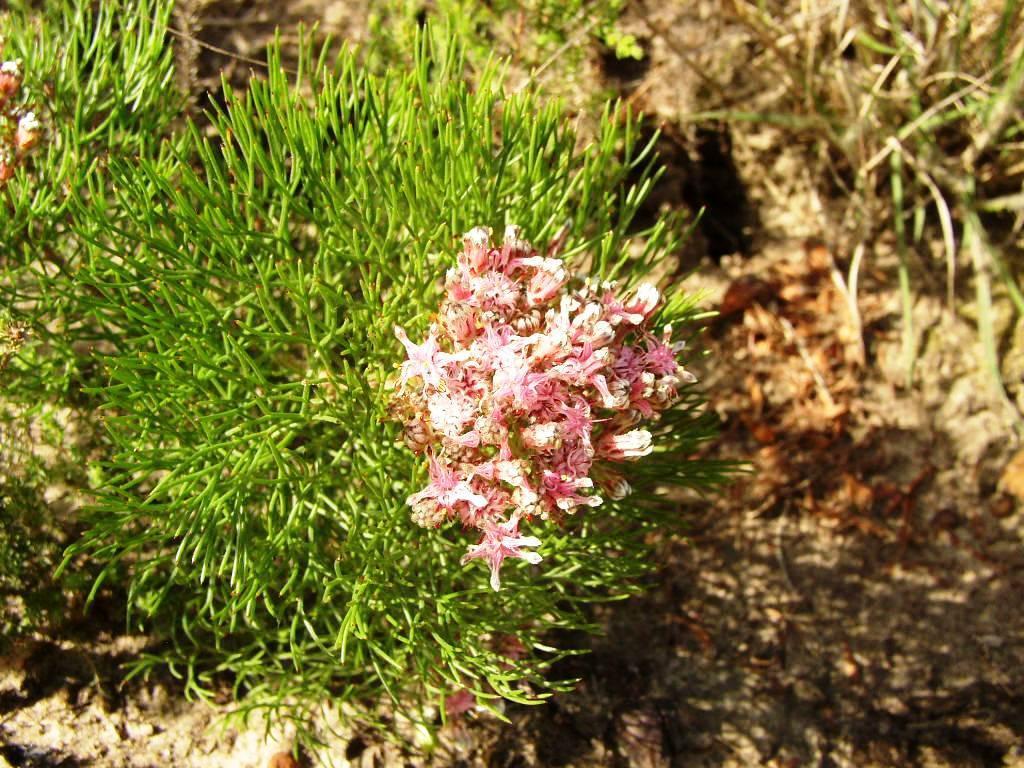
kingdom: Plantae
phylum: Tracheophyta
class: Magnoliopsida
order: Proteales
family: Proteaceae
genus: Serruria
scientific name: Serruria fasciflora
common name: Common pin spiderhead
